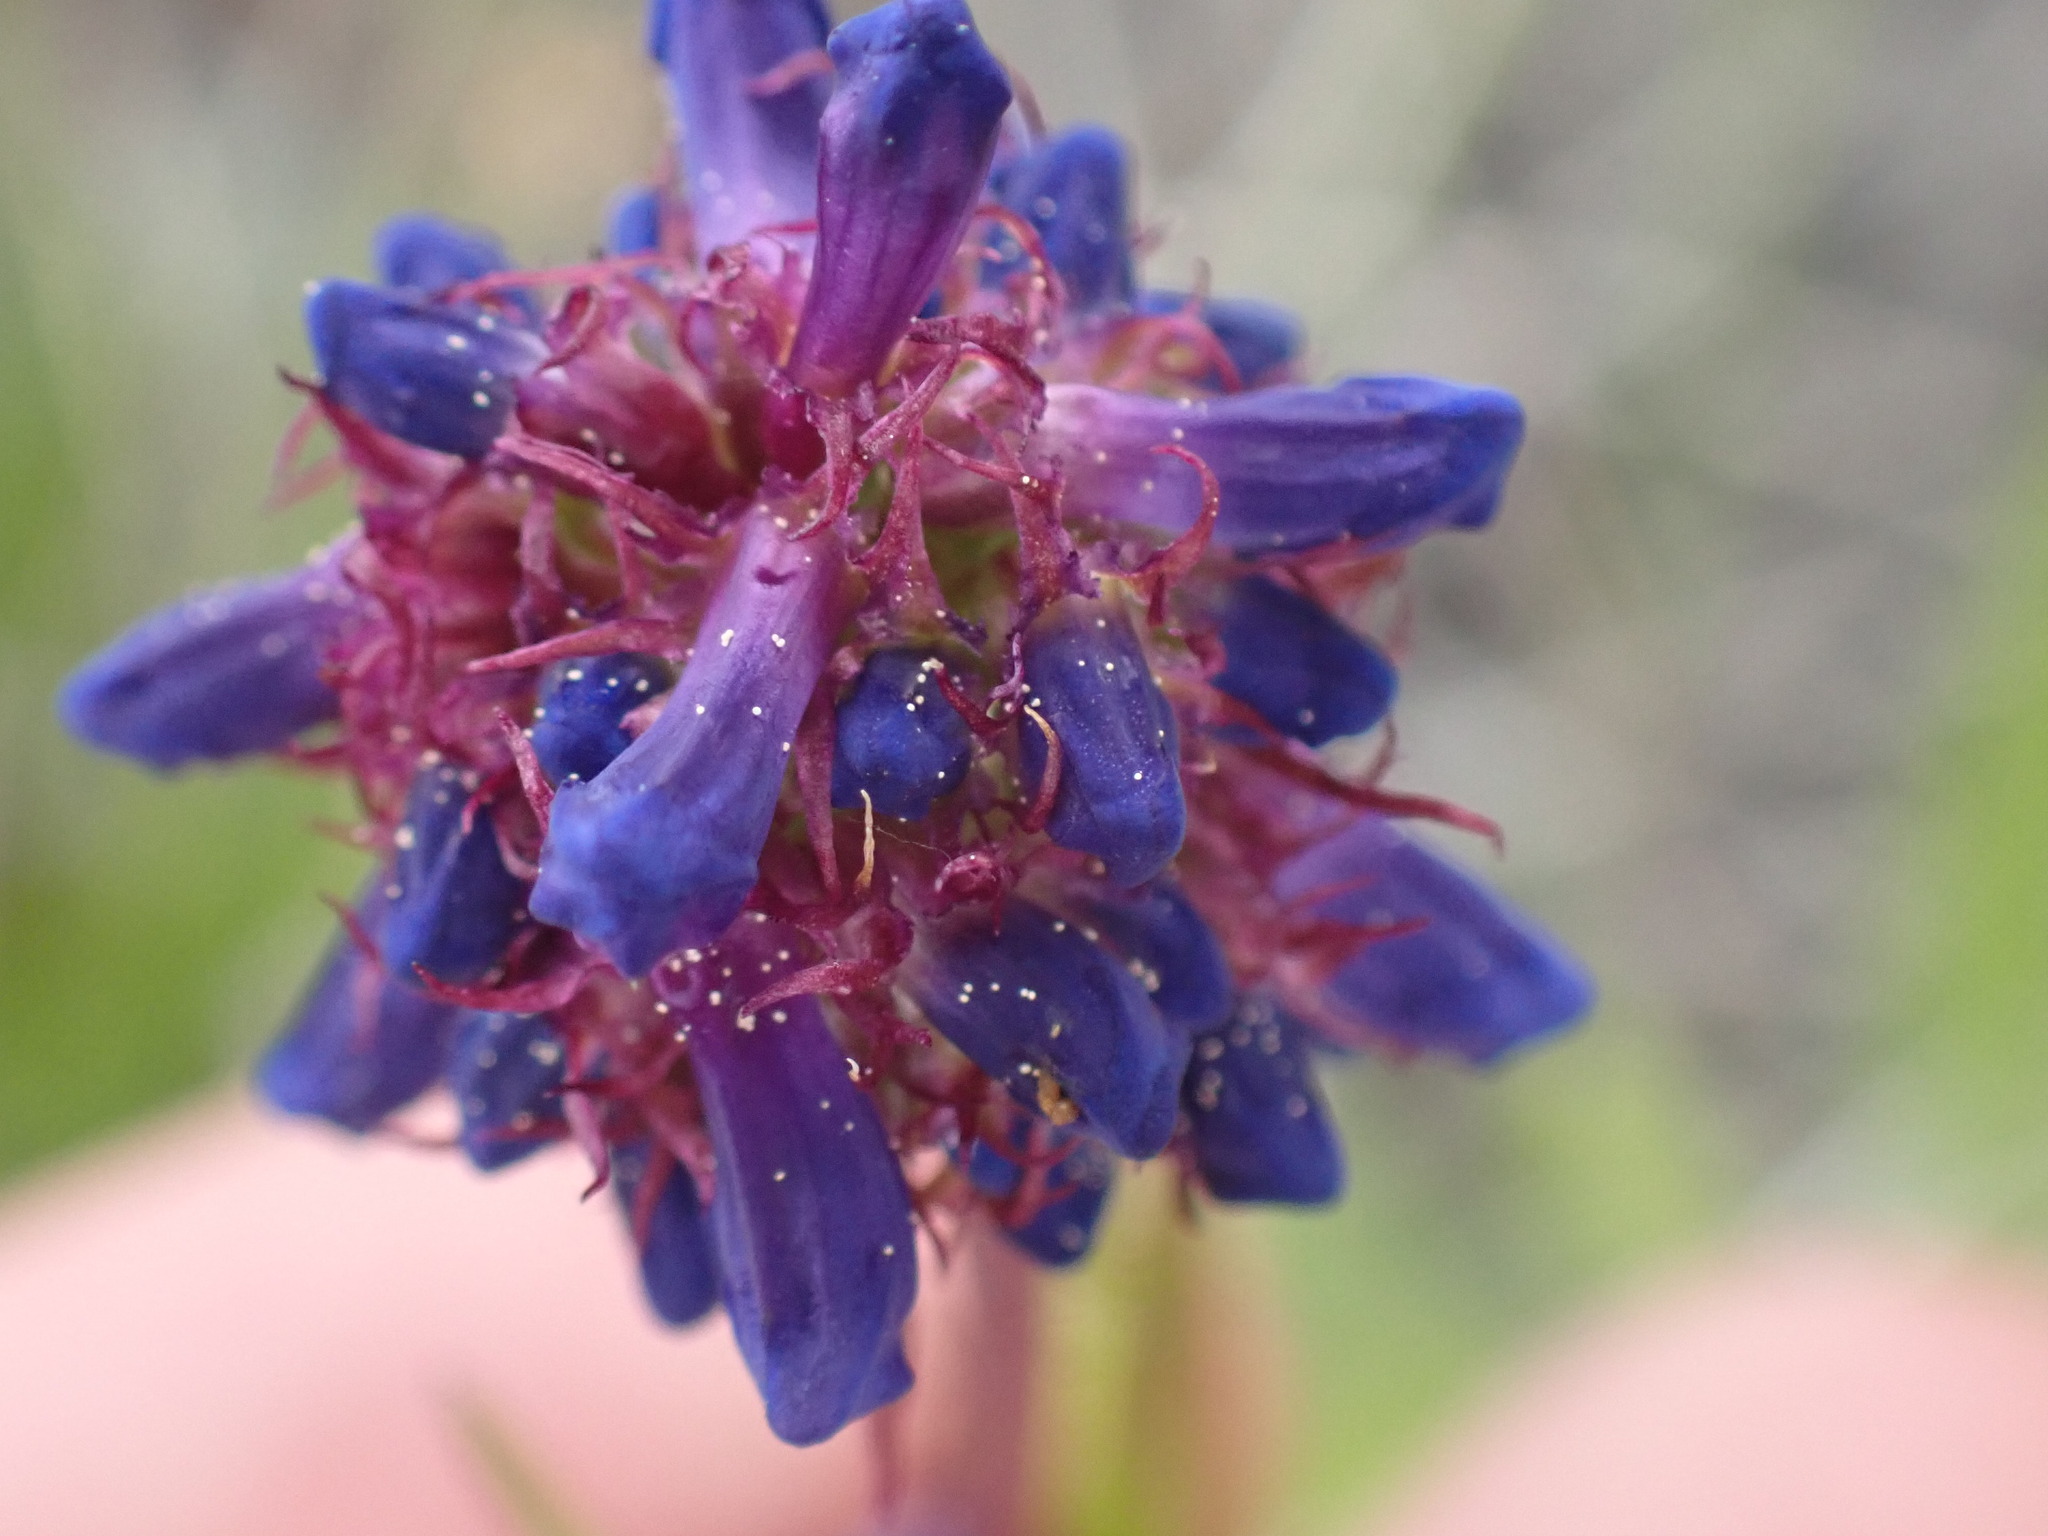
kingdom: Plantae
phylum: Tracheophyta
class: Magnoliopsida
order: Lamiales
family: Plantaginaceae
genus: Penstemon
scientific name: Penstemon procerus
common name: Small-flower penstemon
